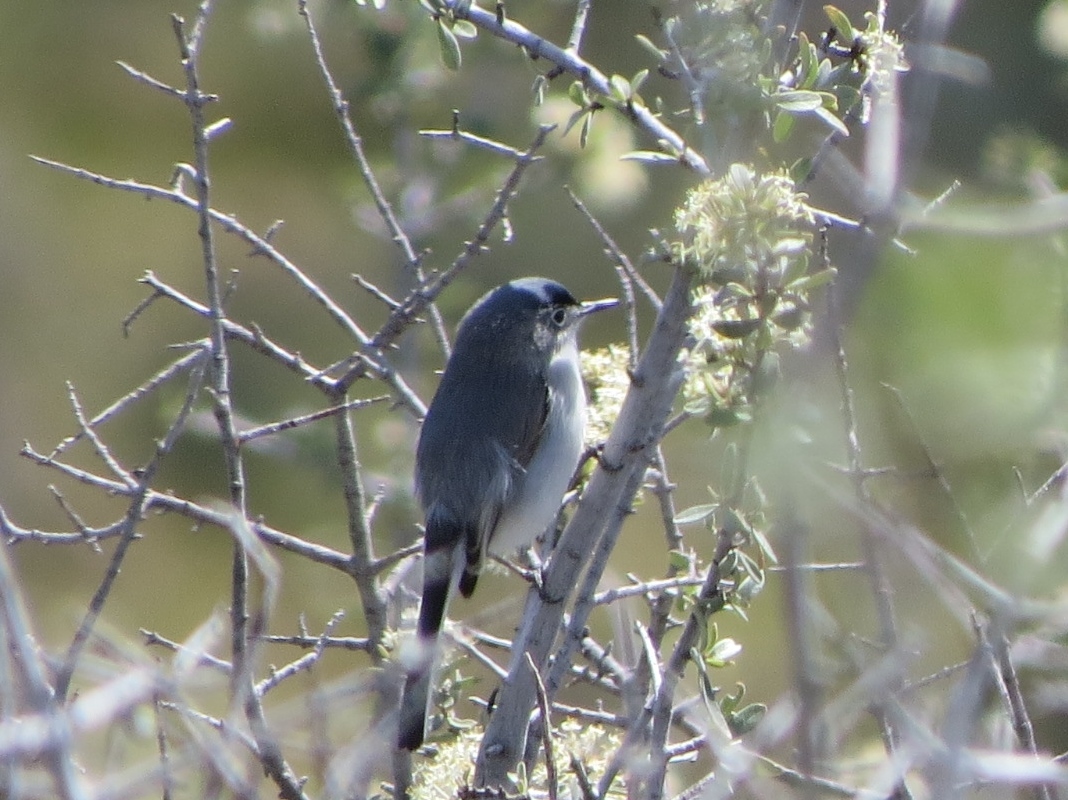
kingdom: Animalia
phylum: Chordata
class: Aves
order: Passeriformes
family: Polioptilidae
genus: Polioptila
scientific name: Polioptila caerulea
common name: Blue-gray gnatcatcher
